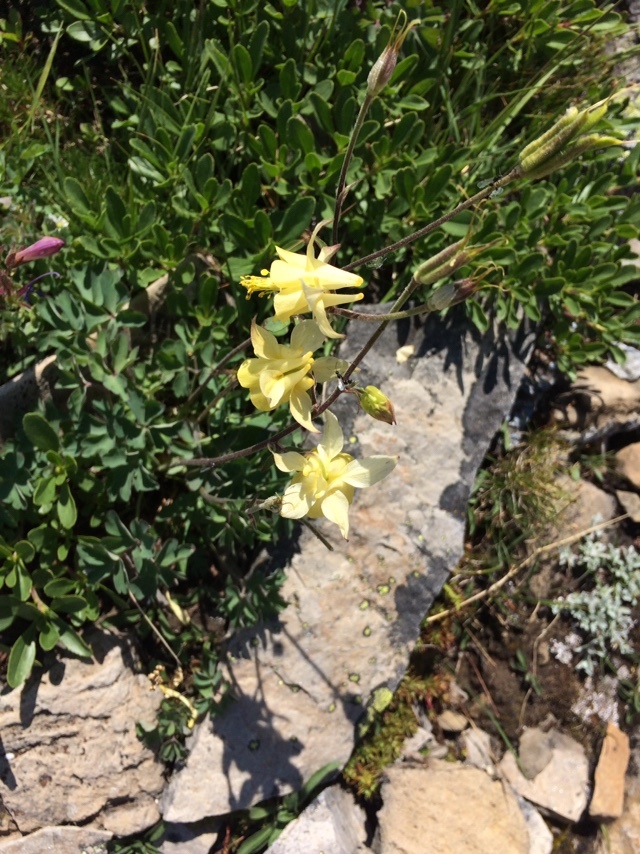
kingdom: Plantae
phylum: Tracheophyta
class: Magnoliopsida
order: Ranunculales
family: Ranunculaceae
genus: Aquilegia
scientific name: Aquilegia flavescens
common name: Yellow columbine
